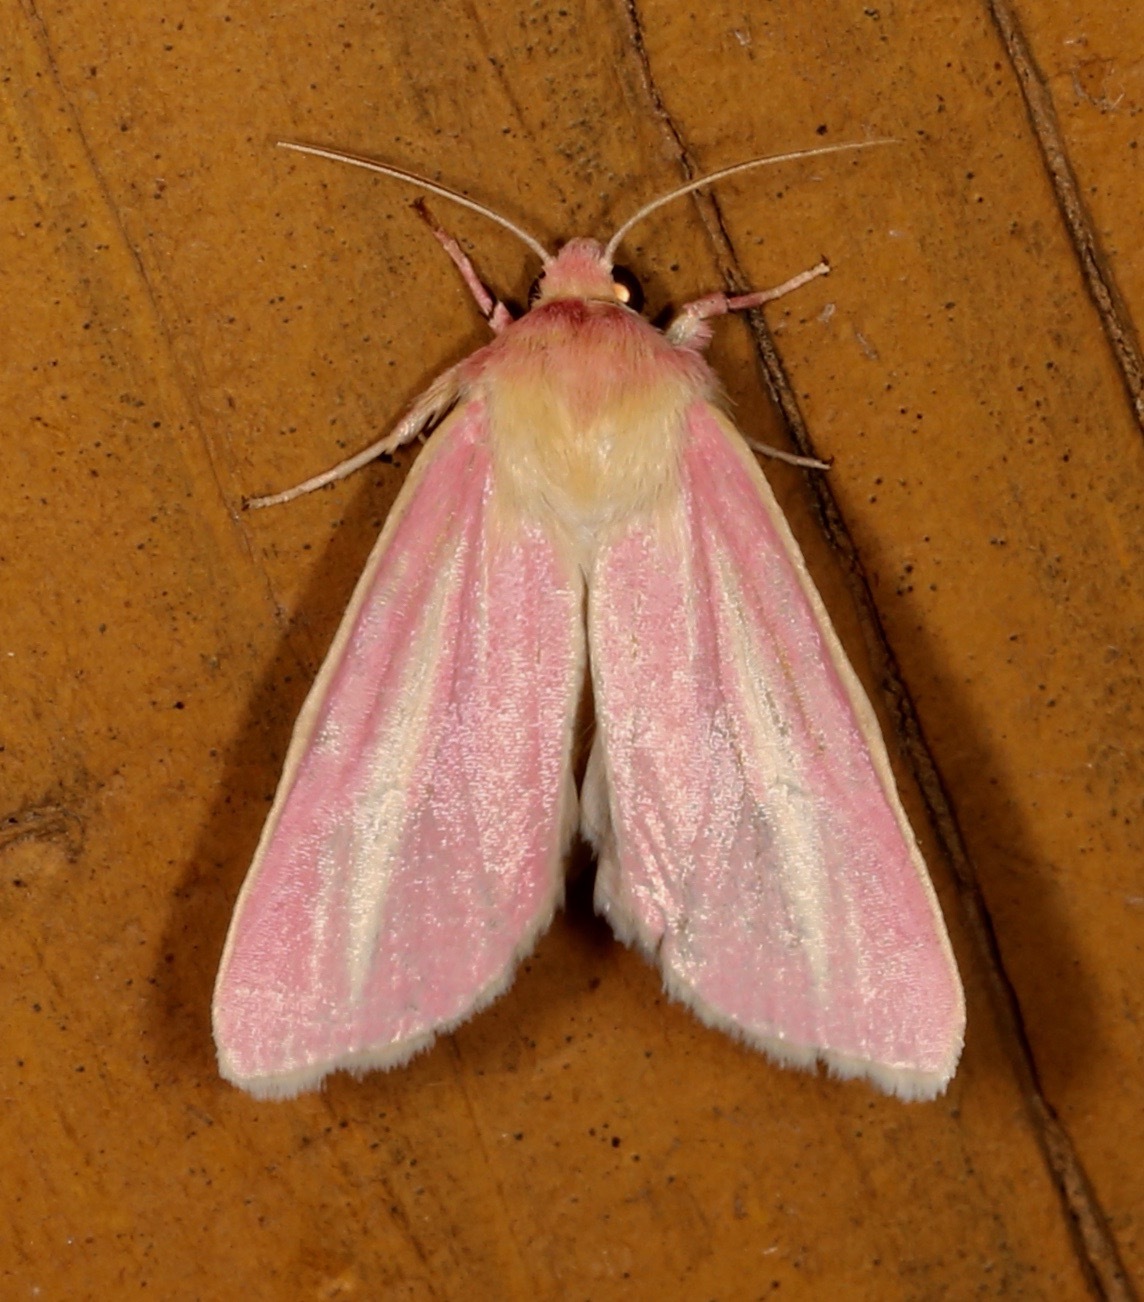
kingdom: Animalia
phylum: Arthropoda
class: Insecta
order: Lepidoptera
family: Noctuidae
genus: Heliocheilus
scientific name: Heliocheilus julia
